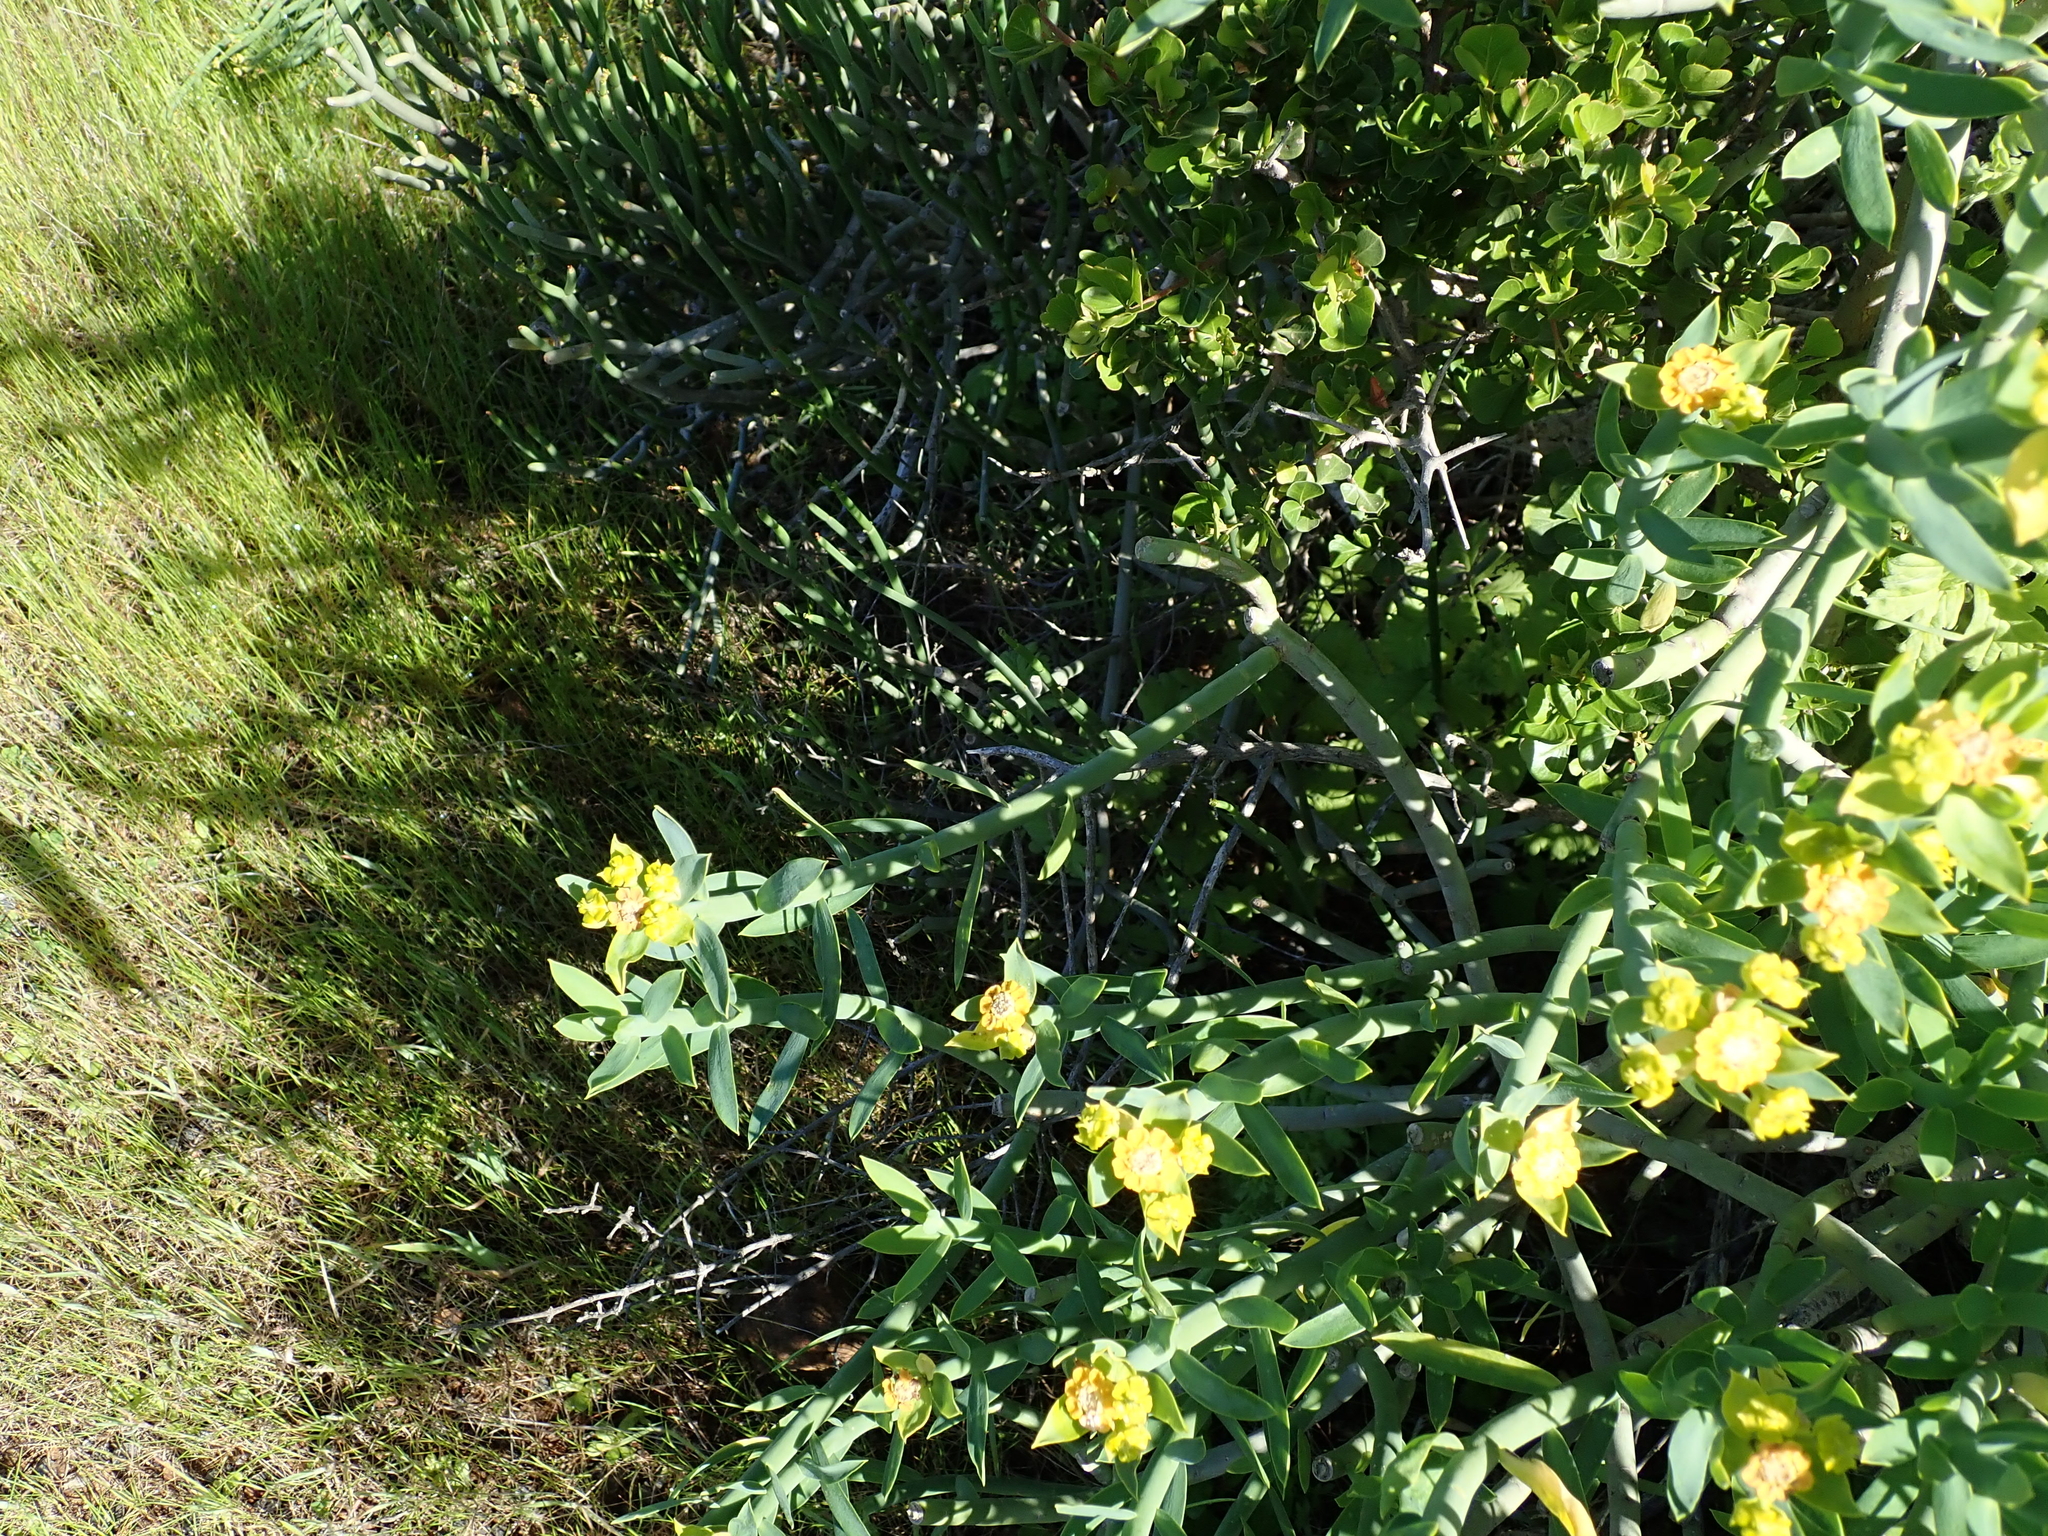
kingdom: Plantae
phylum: Tracheophyta
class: Magnoliopsida
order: Malpighiales
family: Euphorbiaceae
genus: Euphorbia
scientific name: Euphorbia mauritanica
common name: Jackal's-food
